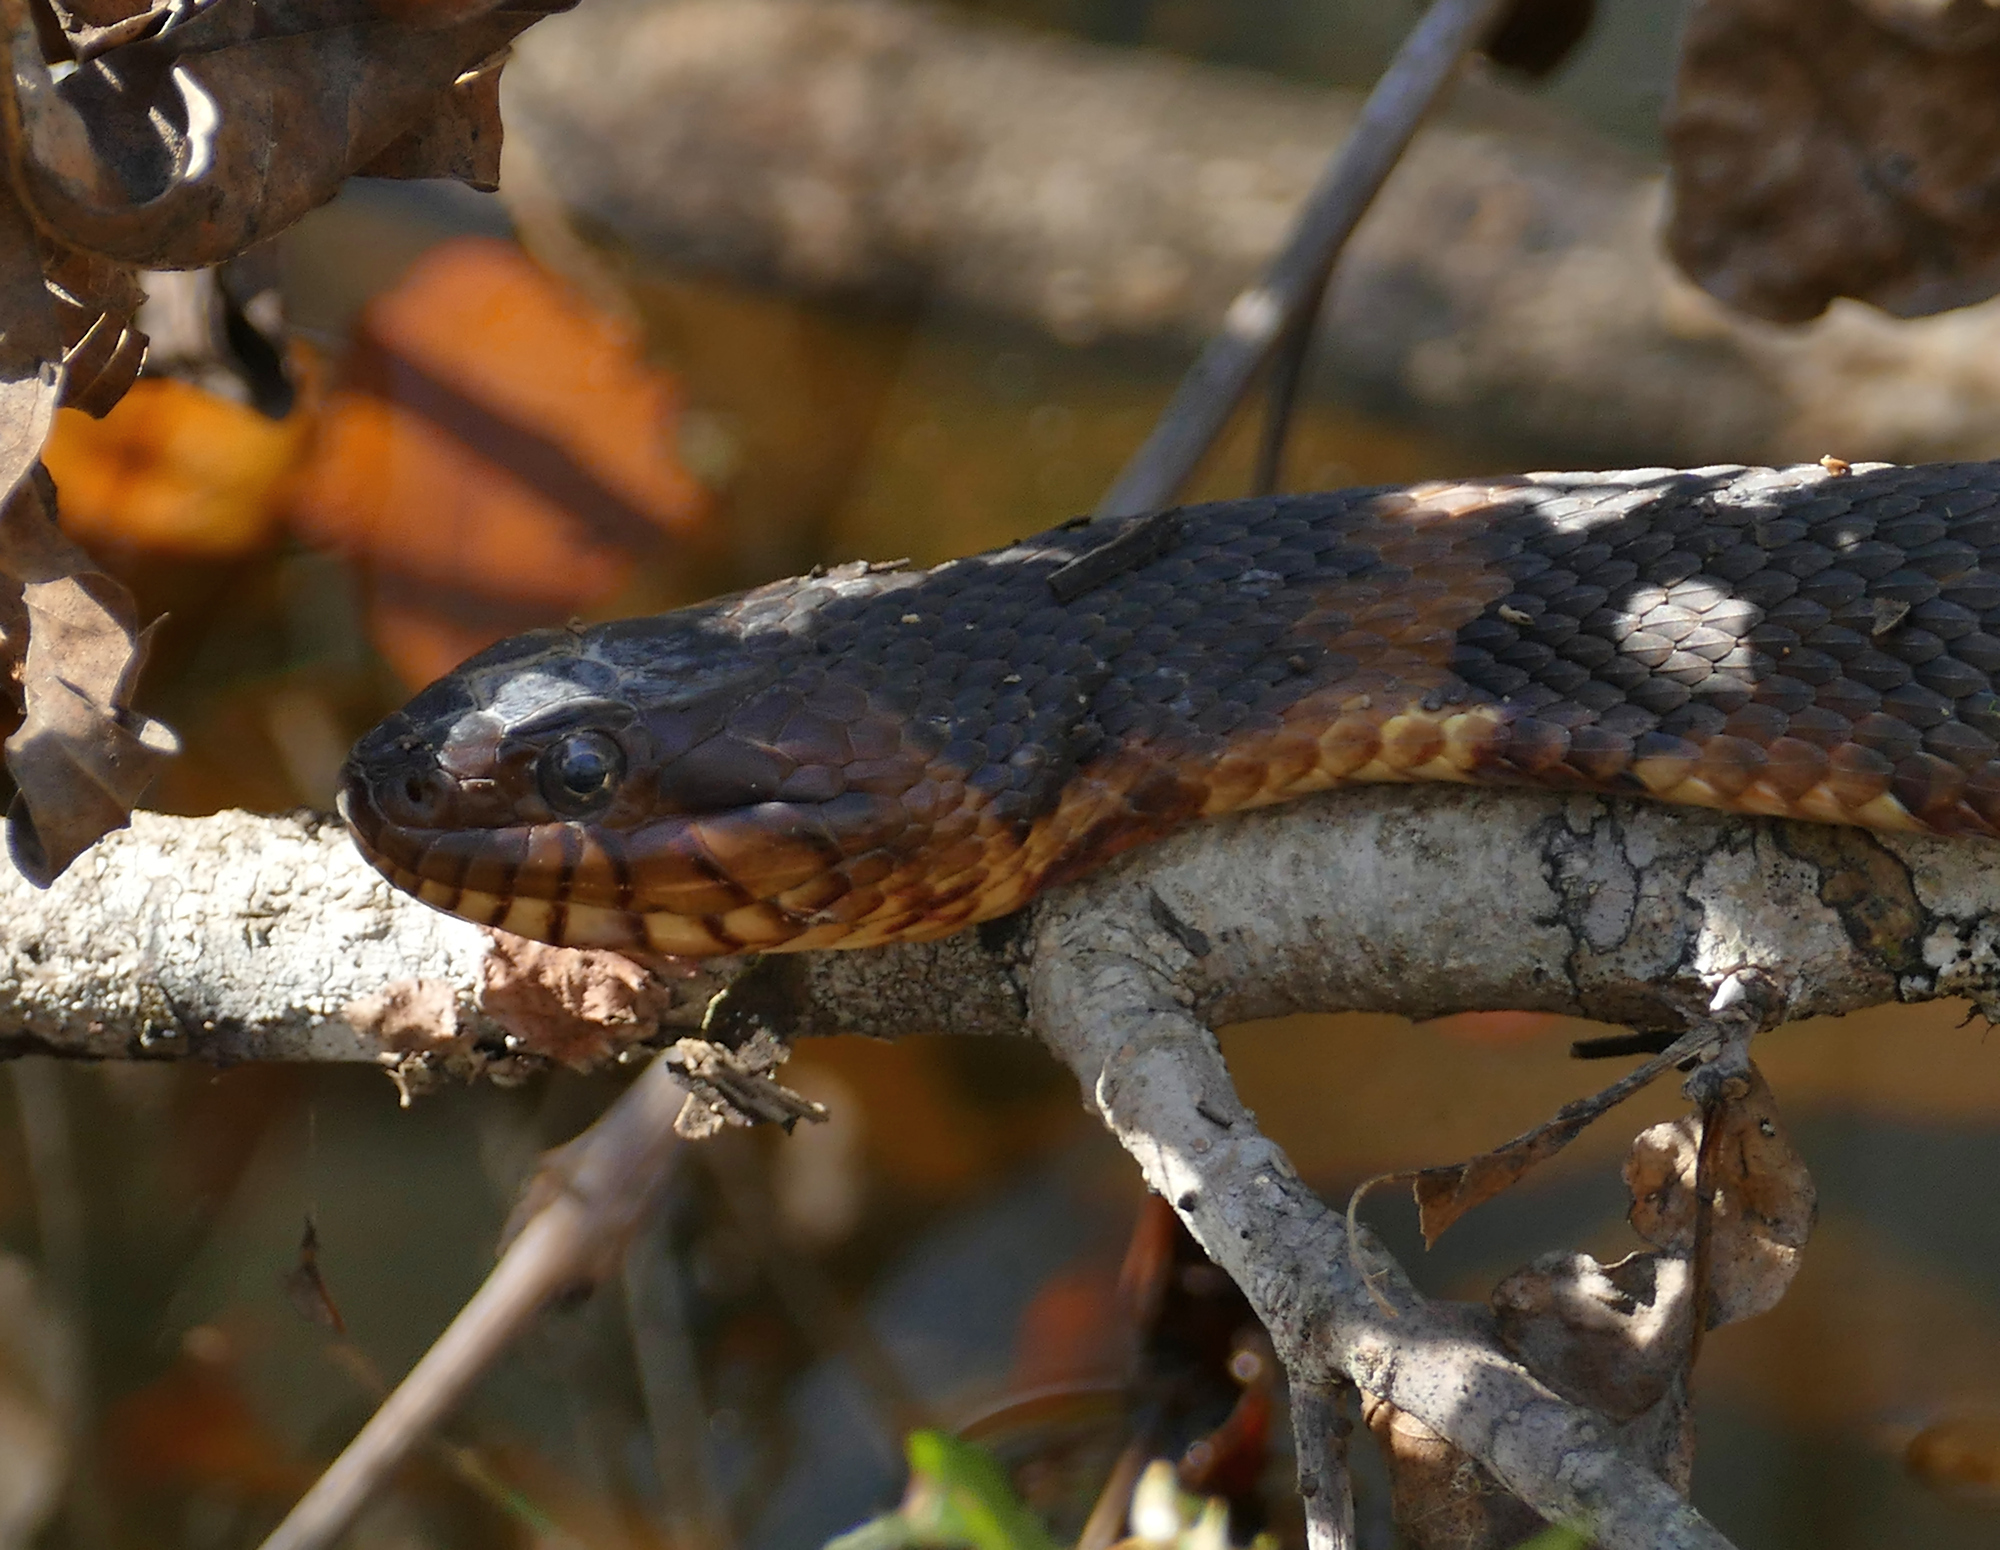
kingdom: Animalia
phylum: Chordata
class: Squamata
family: Colubridae
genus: Nerodia
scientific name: Nerodia fasciata
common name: Southern water snake
